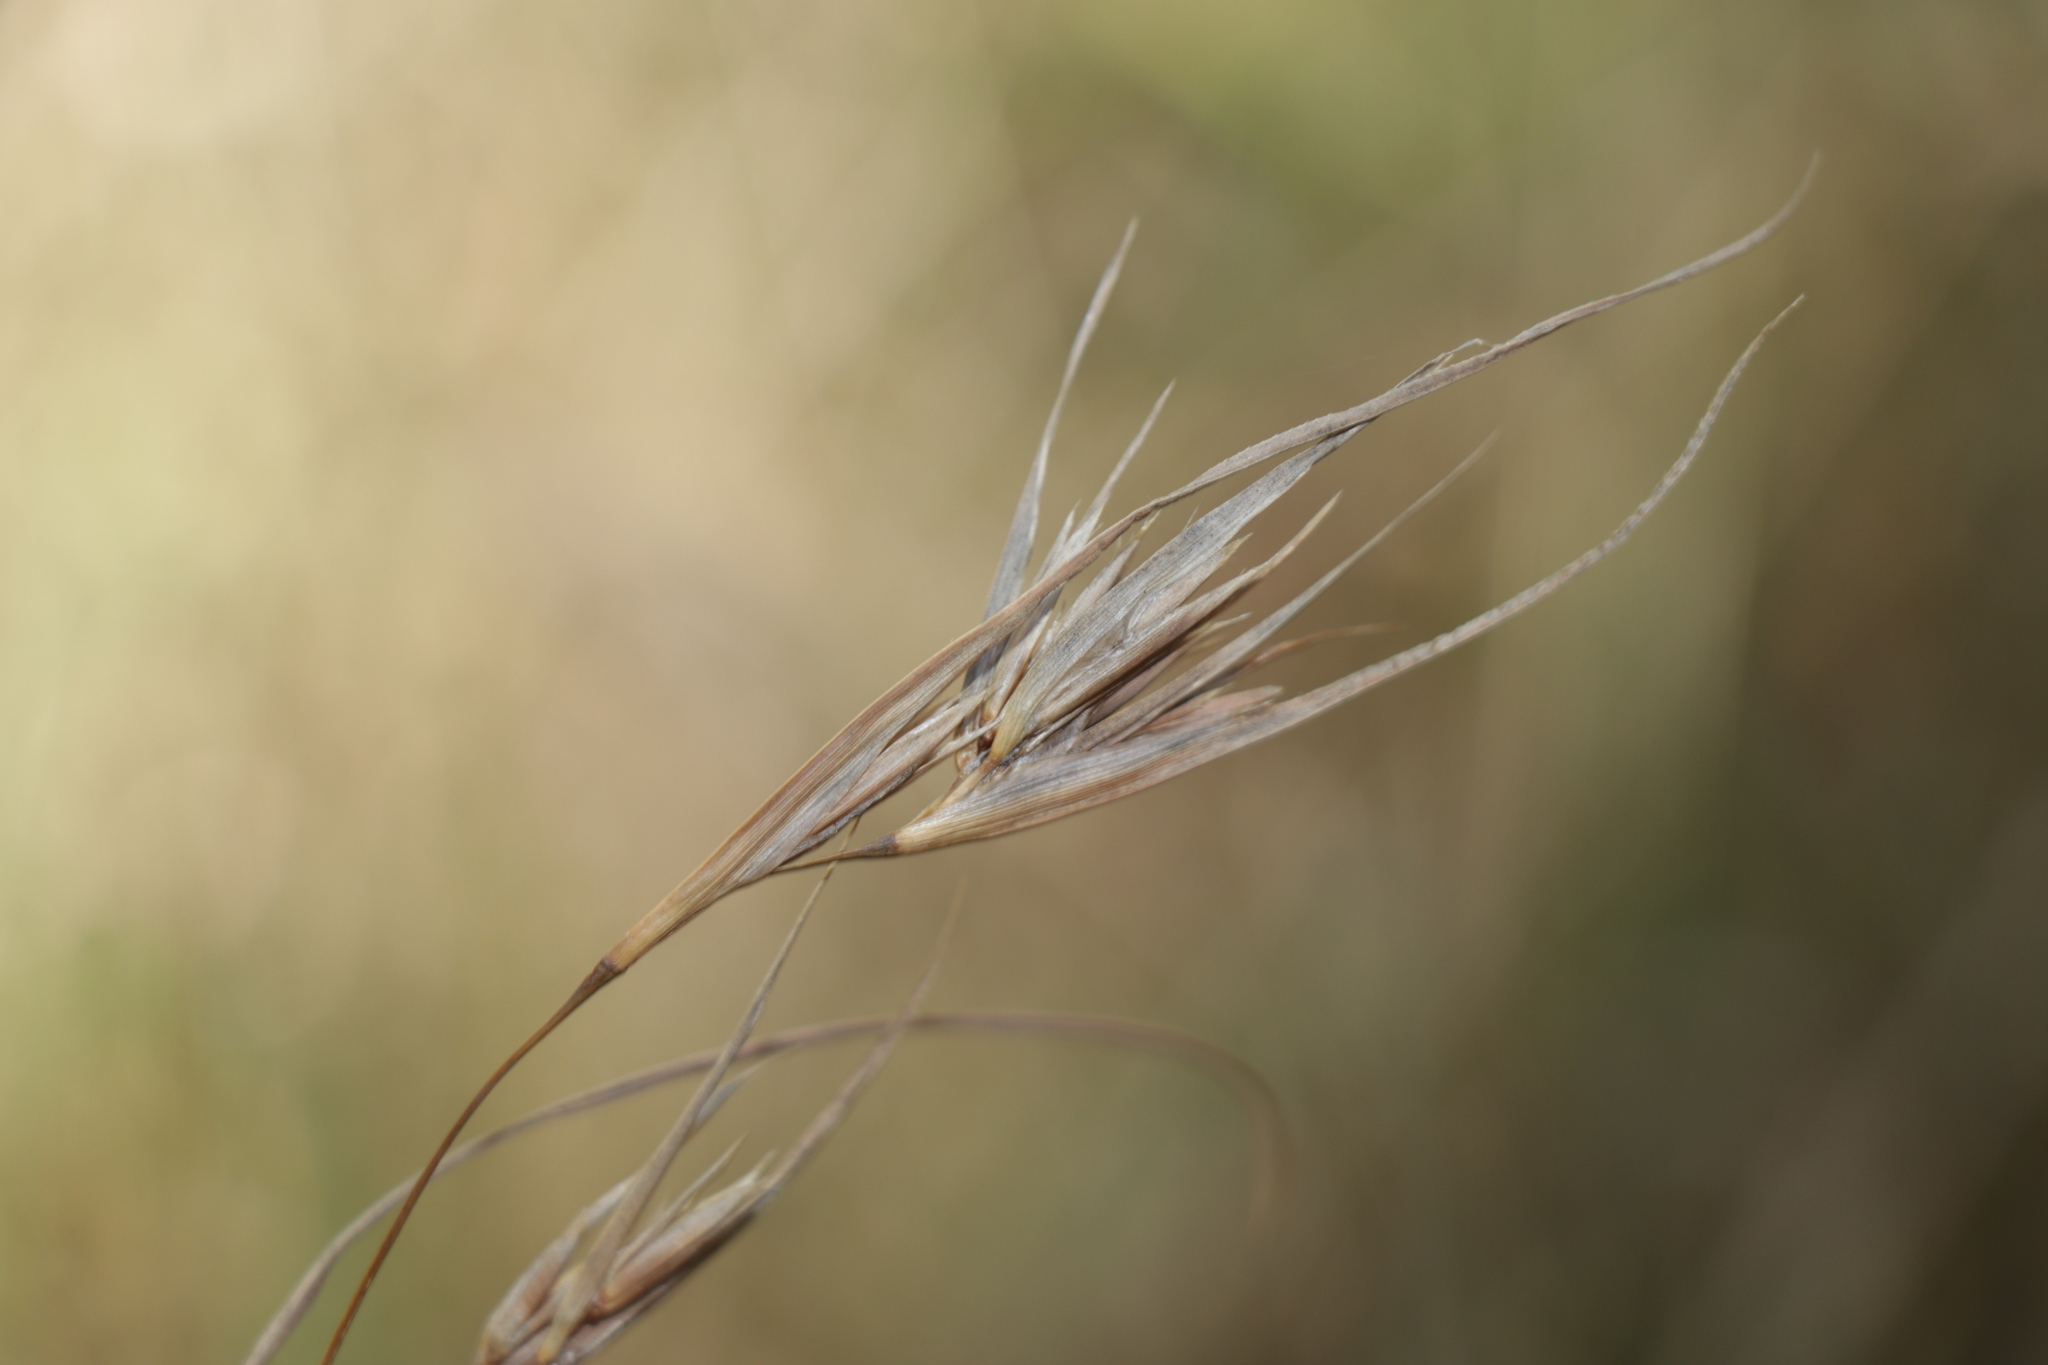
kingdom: Plantae
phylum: Tracheophyta
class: Liliopsida
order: Poales
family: Poaceae
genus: Themeda
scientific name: Themeda triandra
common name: Kangaroo grass
